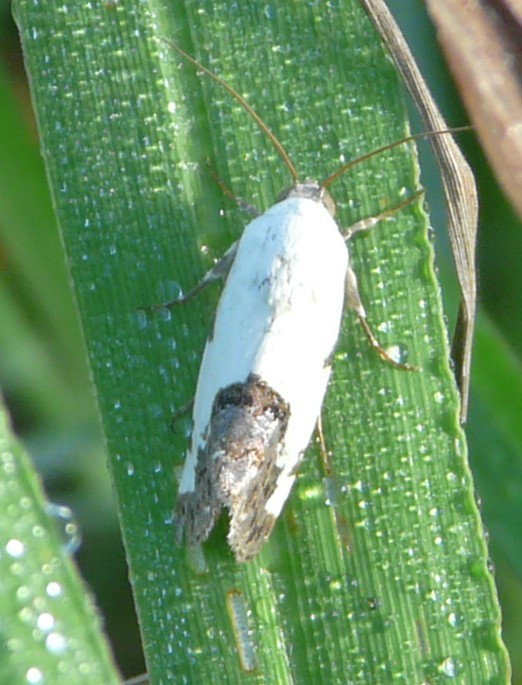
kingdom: Animalia
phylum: Arthropoda
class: Insecta
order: Lepidoptera
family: Noctuidae
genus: Acontia
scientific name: Acontia Tarache tetragona
